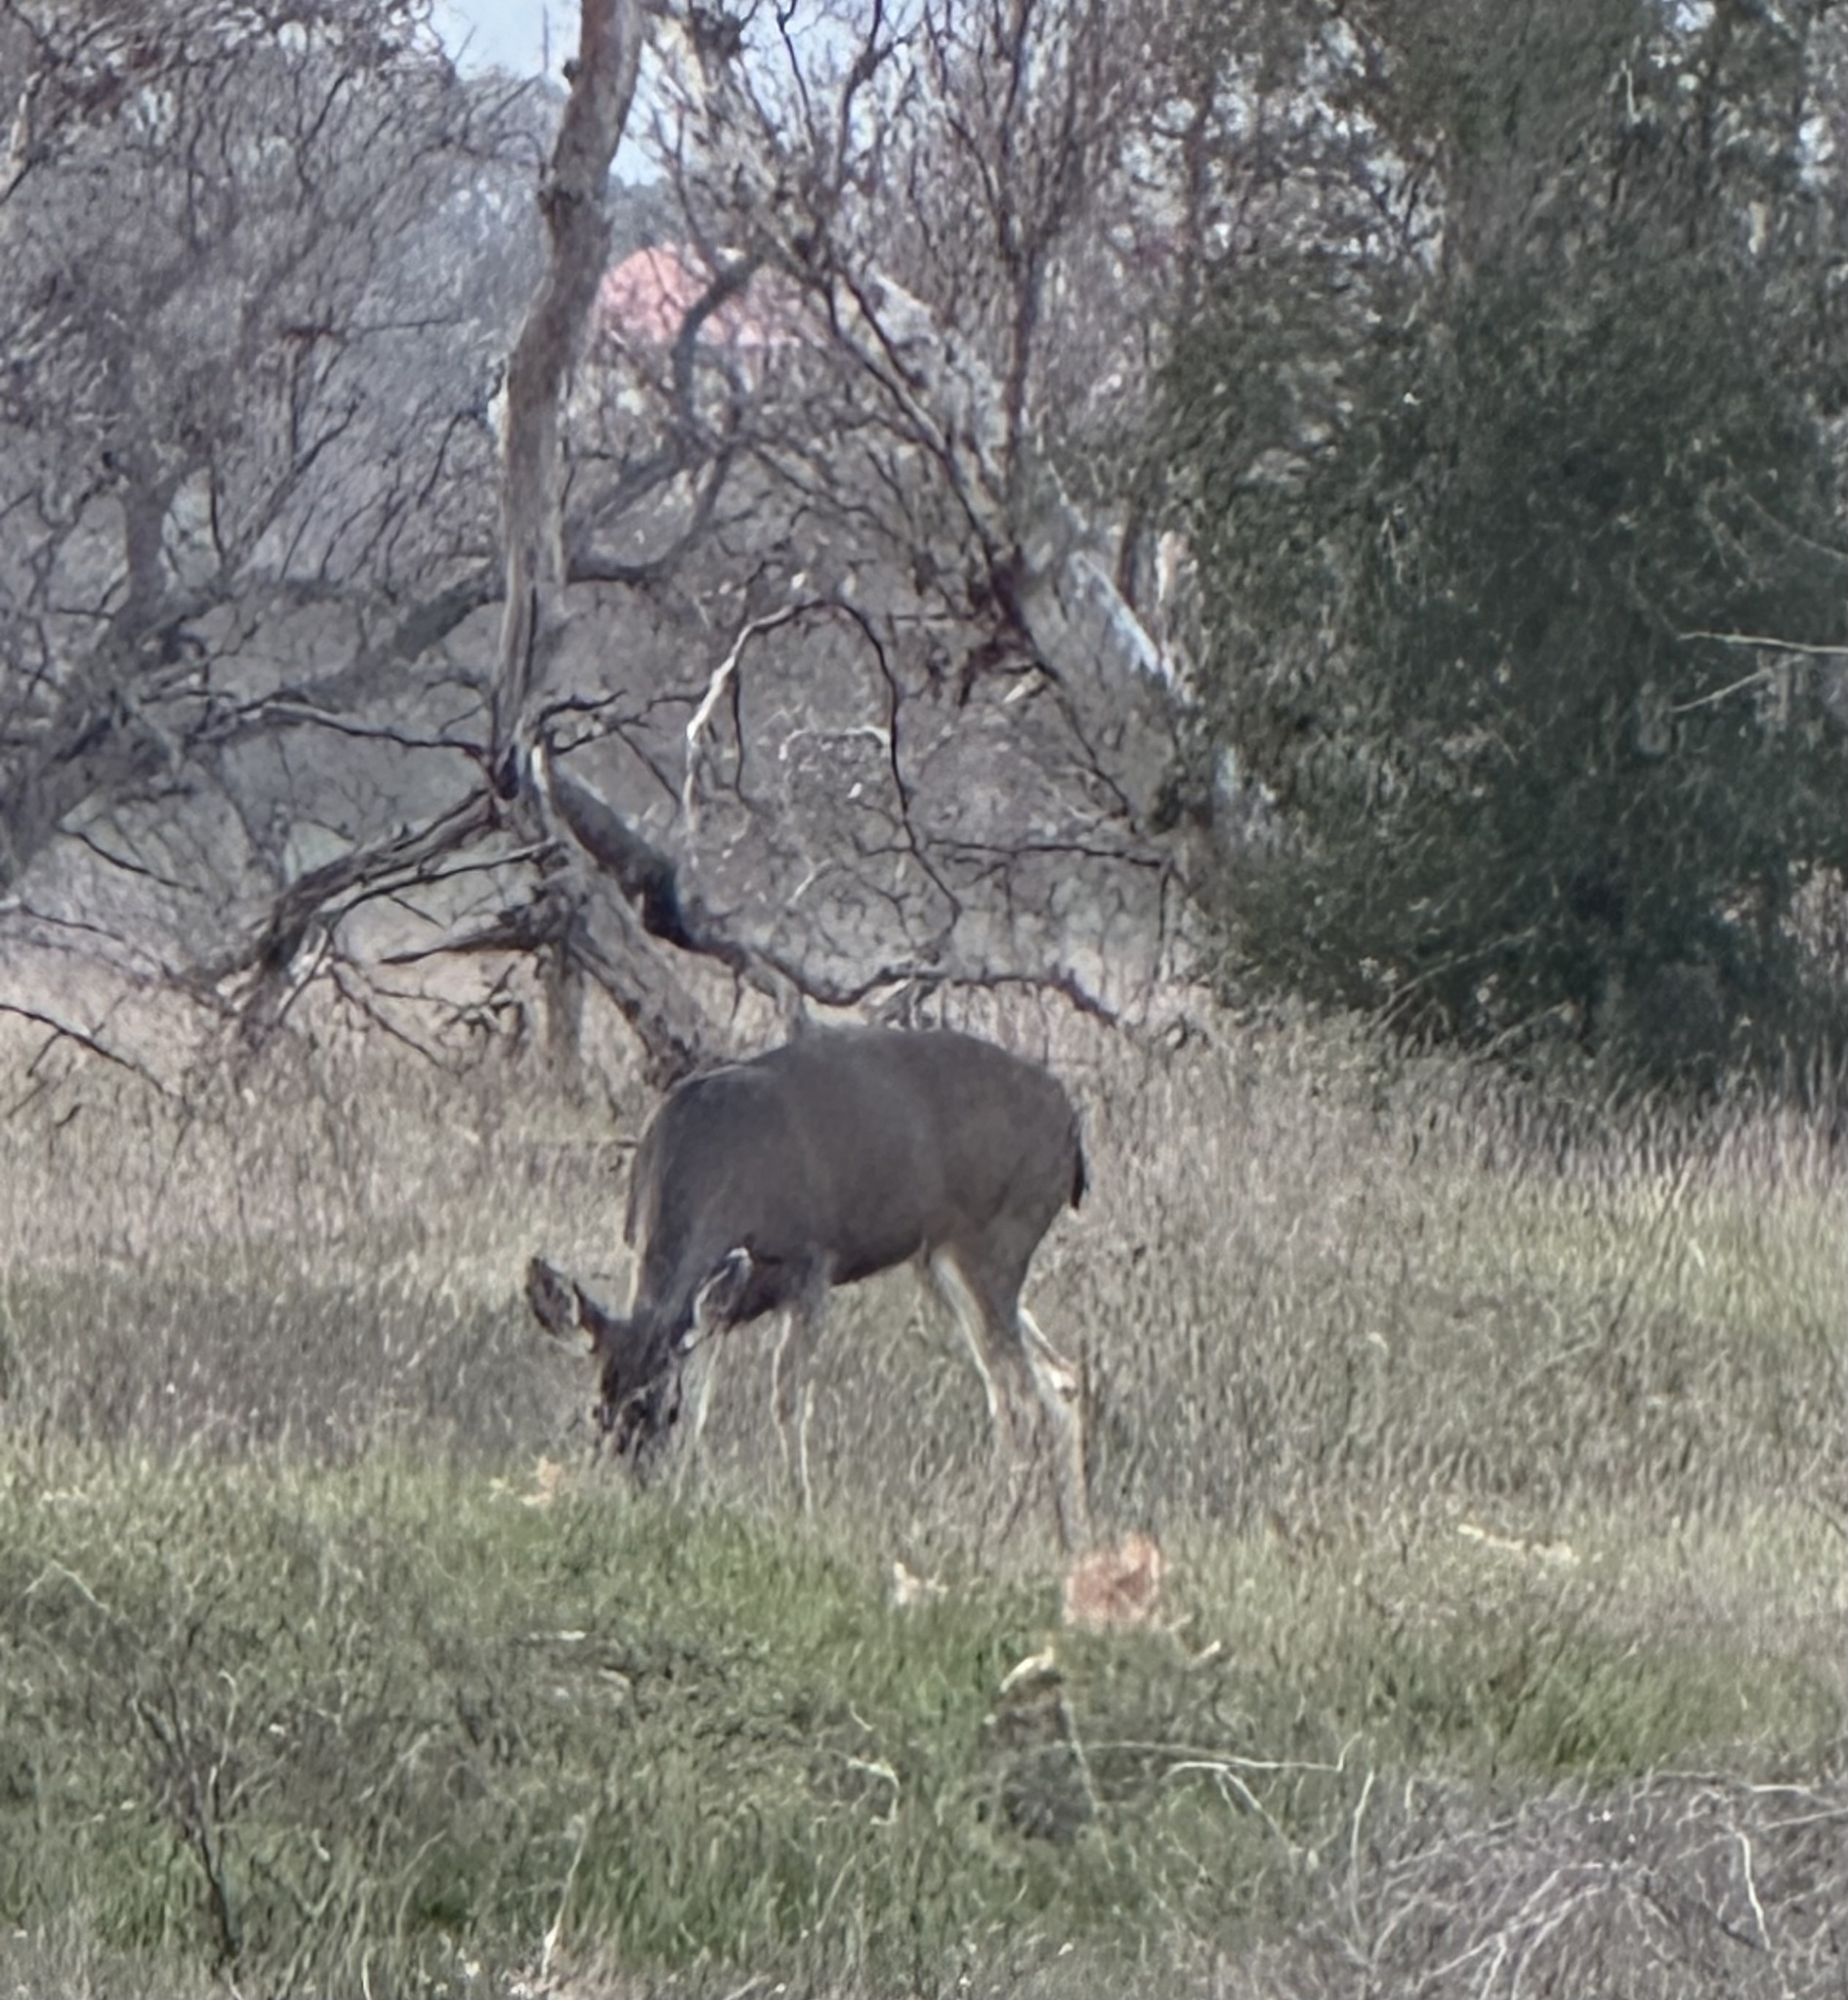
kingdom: Animalia
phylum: Chordata
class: Mammalia
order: Artiodactyla
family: Cervidae
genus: Odocoileus
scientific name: Odocoileus hemionus
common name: Mule deer
